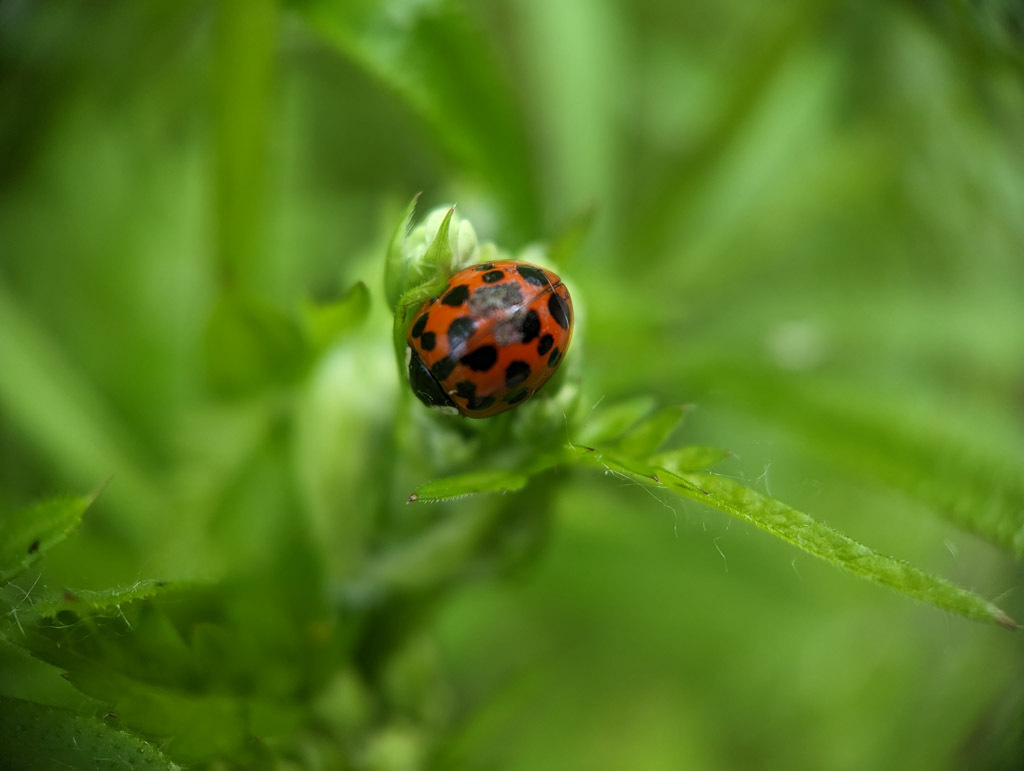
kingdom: Animalia
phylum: Arthropoda
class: Insecta
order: Coleoptera
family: Coccinellidae
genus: Harmonia
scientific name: Harmonia axyridis
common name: Harlequin ladybird
